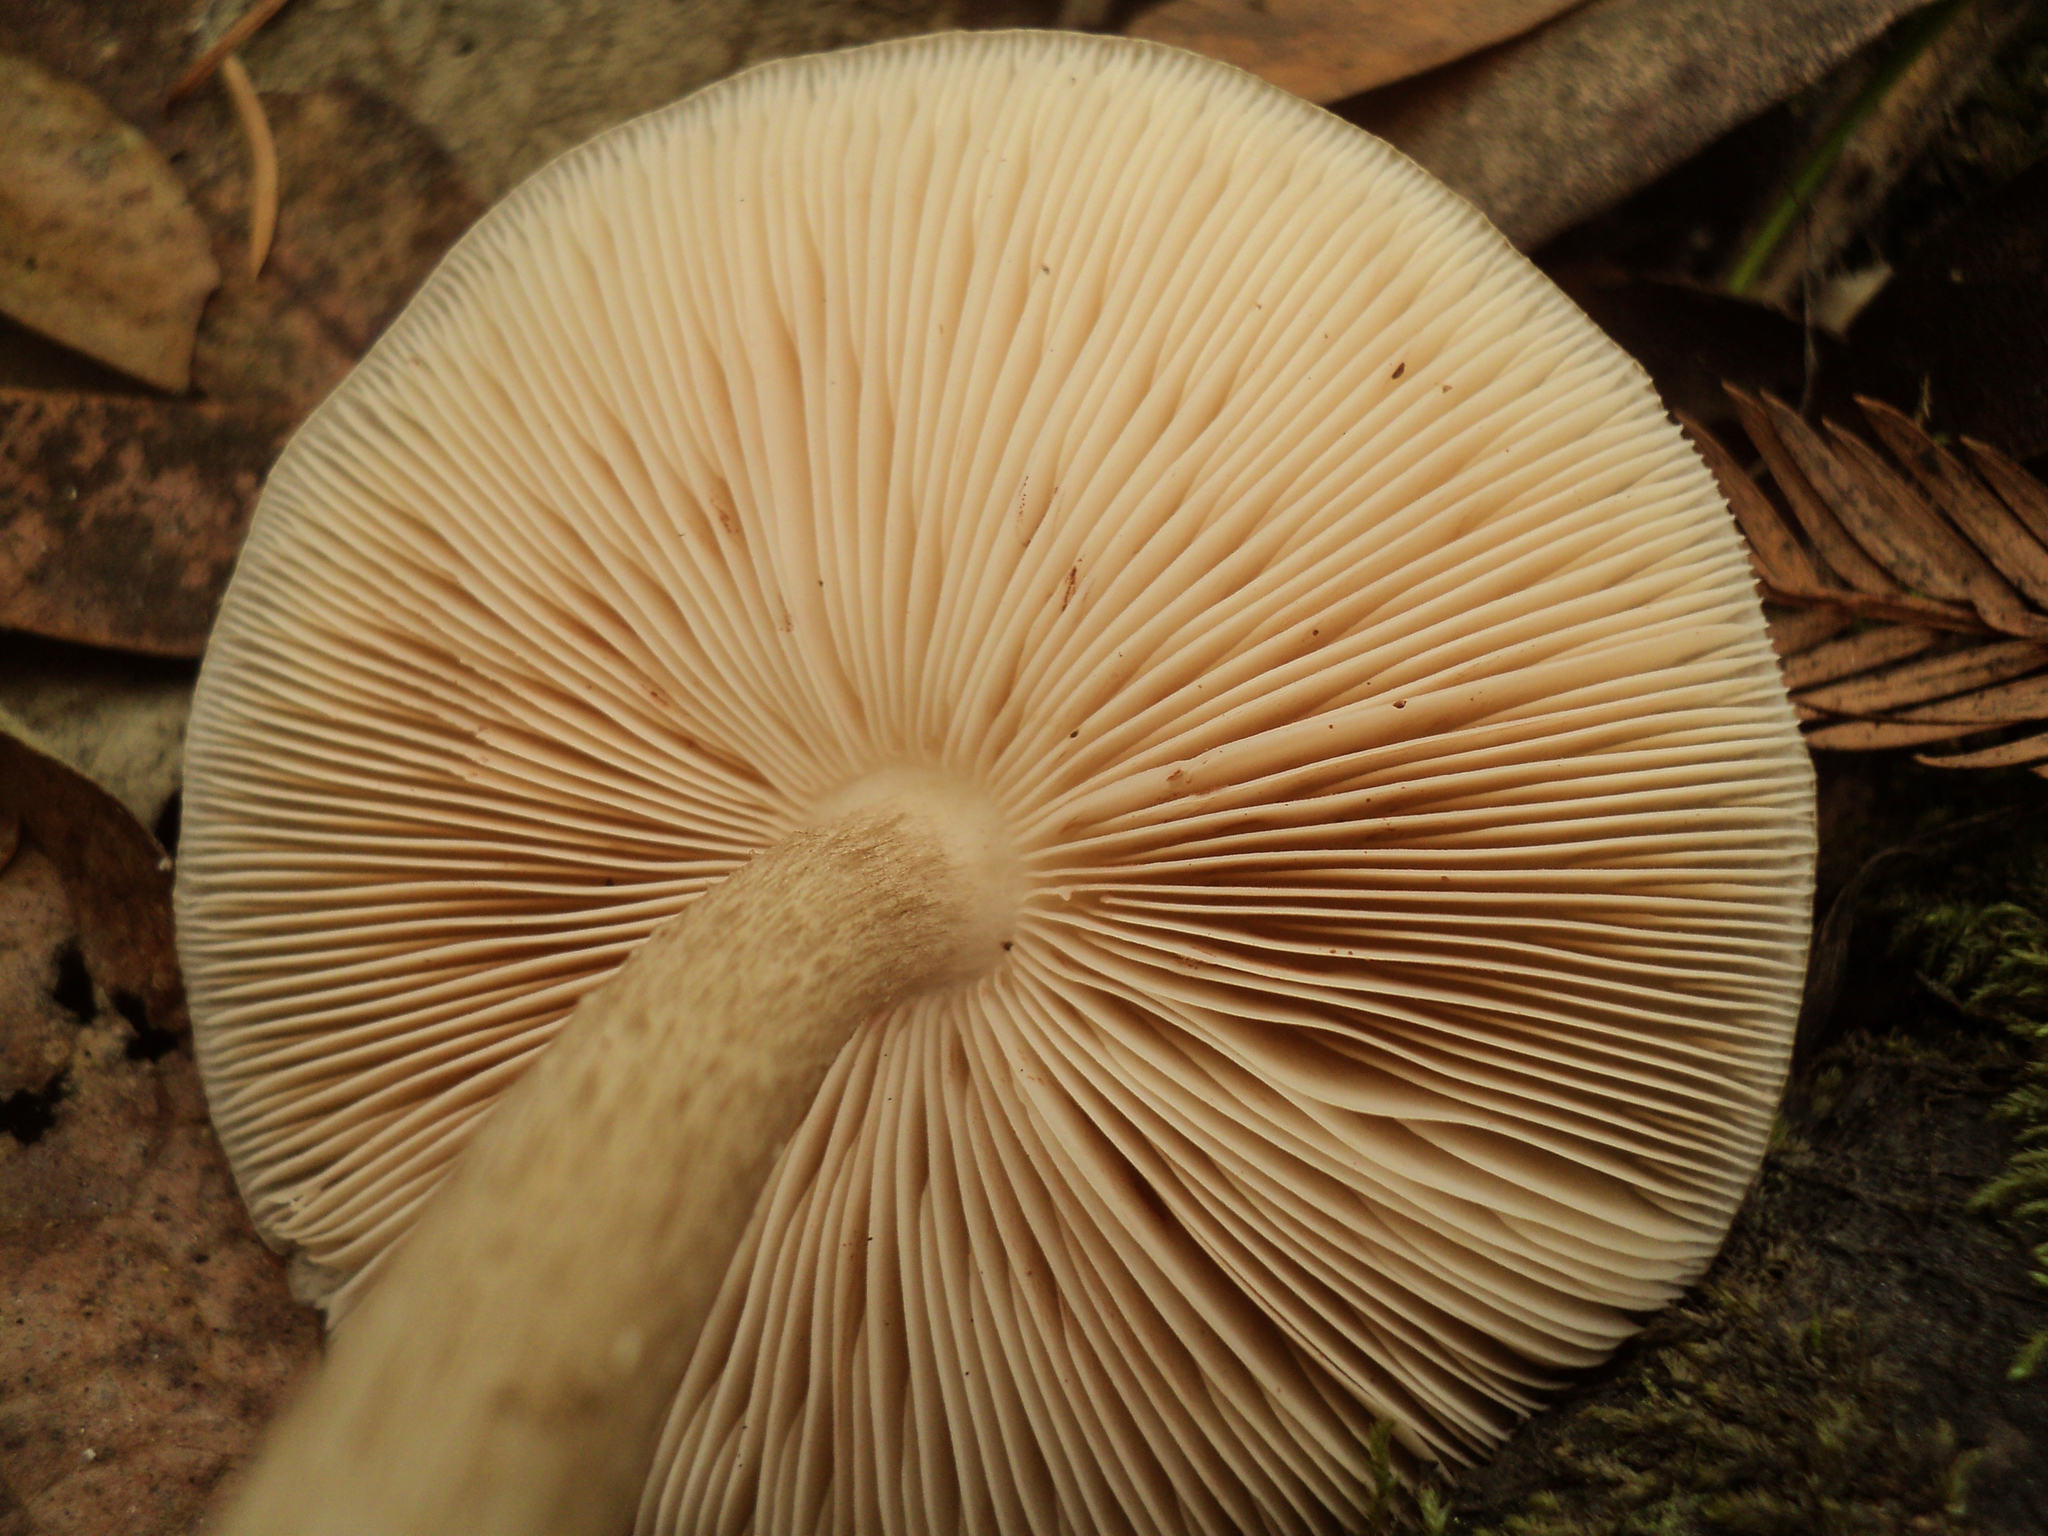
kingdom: Fungi
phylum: Basidiomycota
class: Agaricomycetes
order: Agaricales
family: Pluteaceae
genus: Pluteus
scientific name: Pluteus exilis
